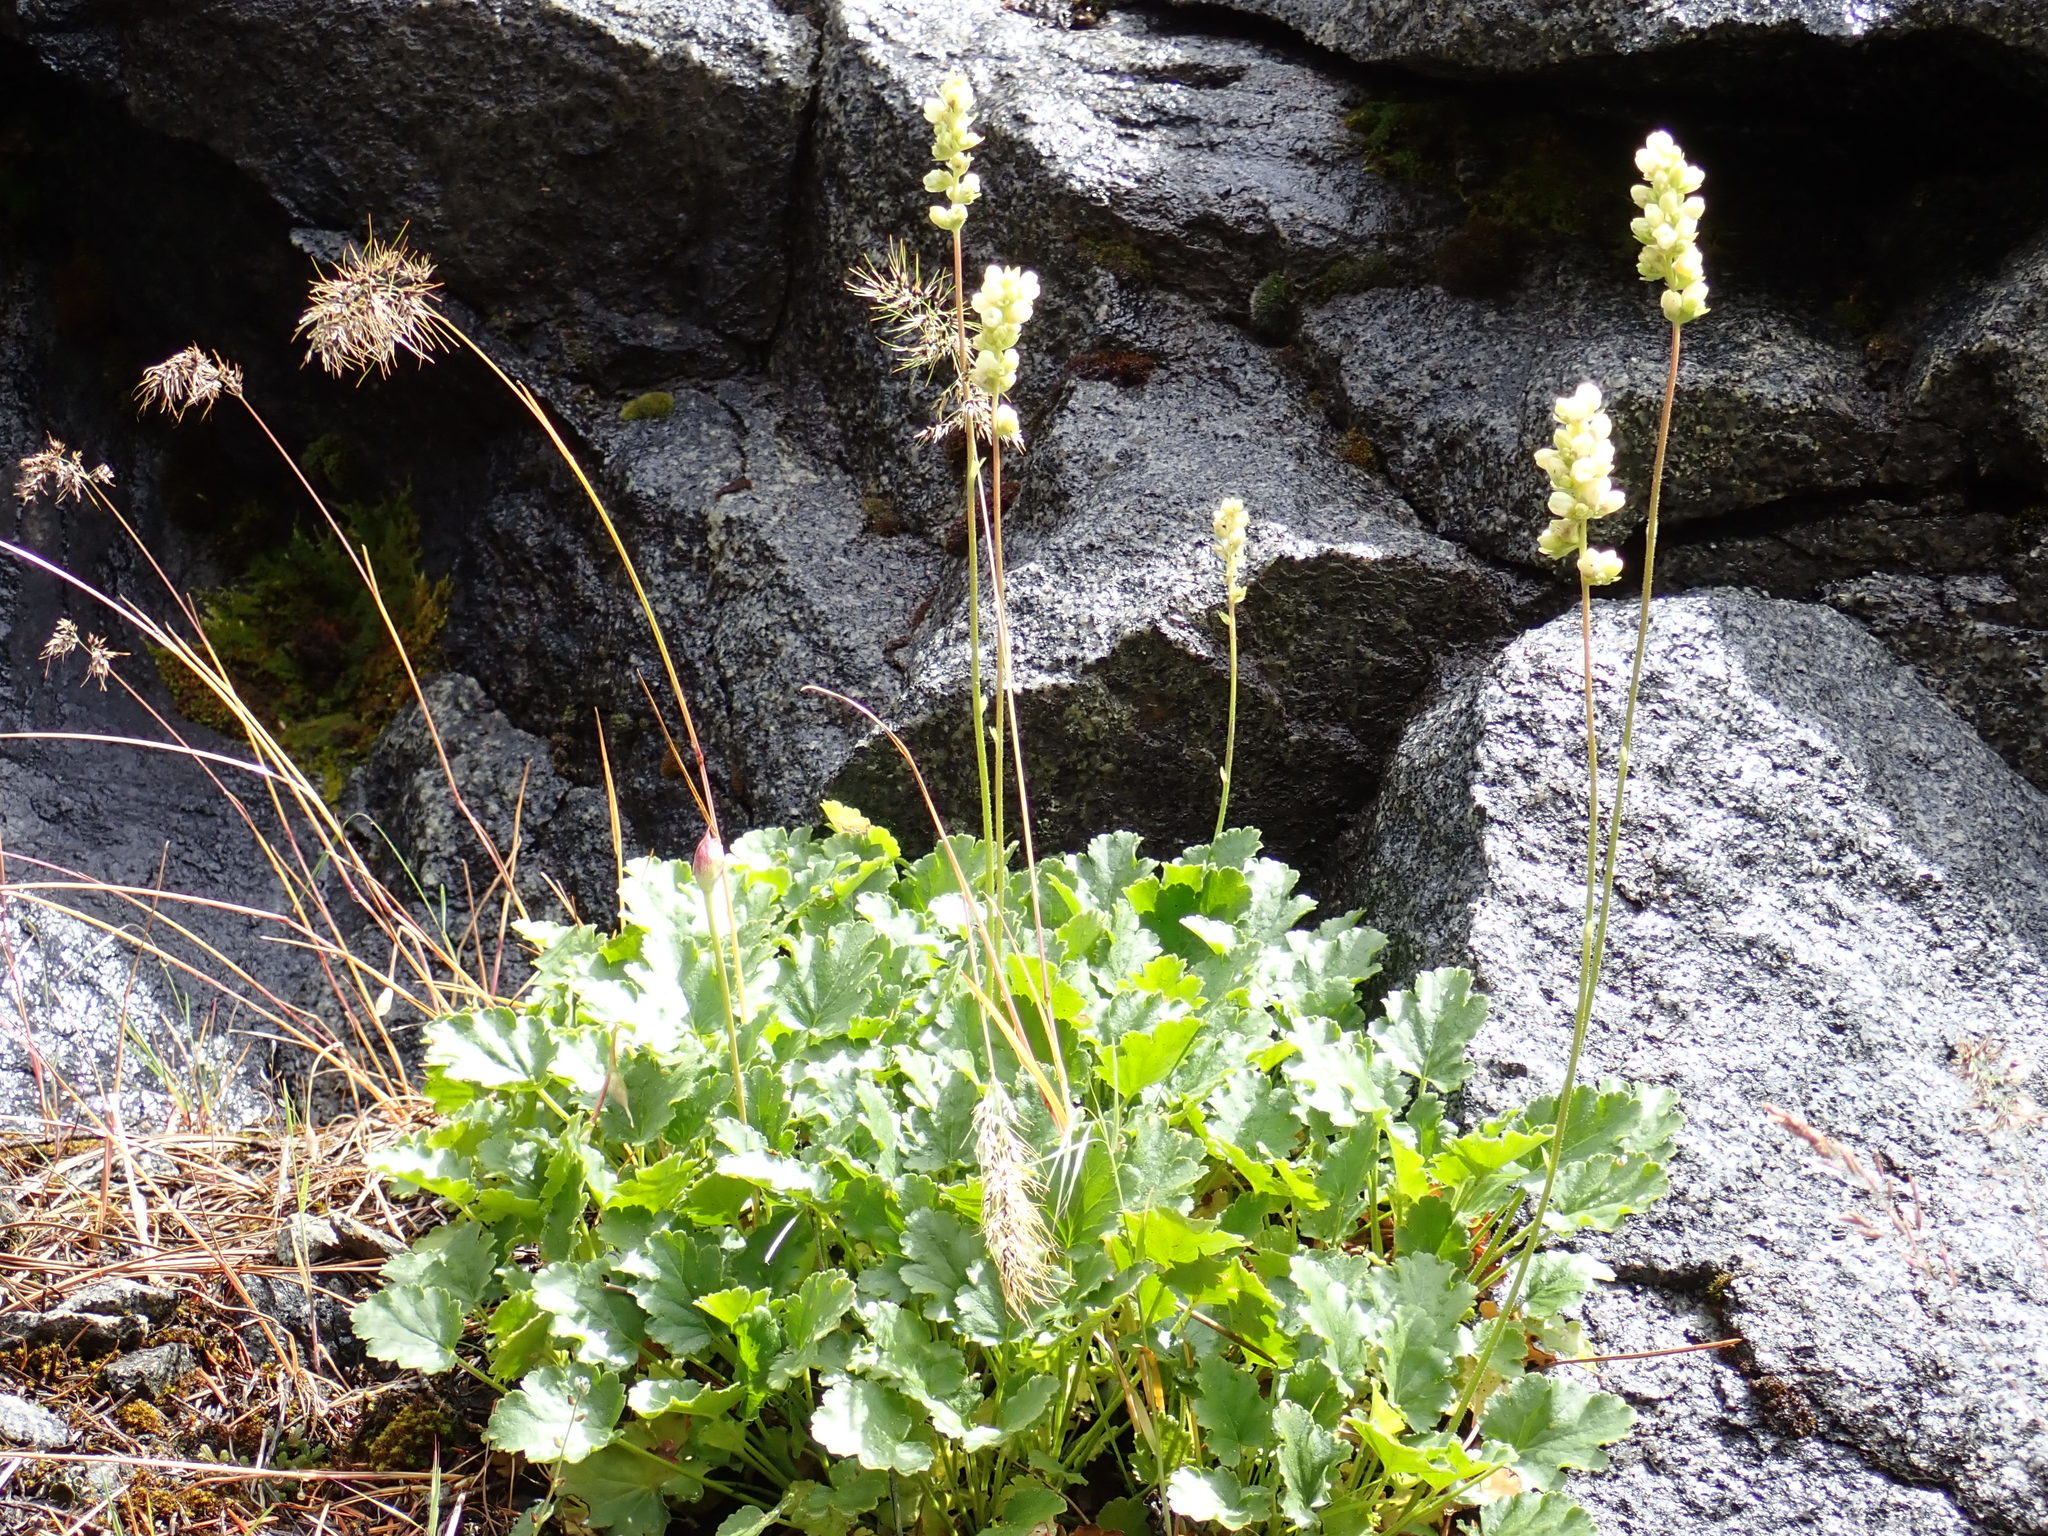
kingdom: Plantae
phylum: Tracheophyta
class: Magnoliopsida
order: Saxifragales
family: Saxifragaceae
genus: Heuchera
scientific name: Heuchera cylindrica
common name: Mat alumroot
